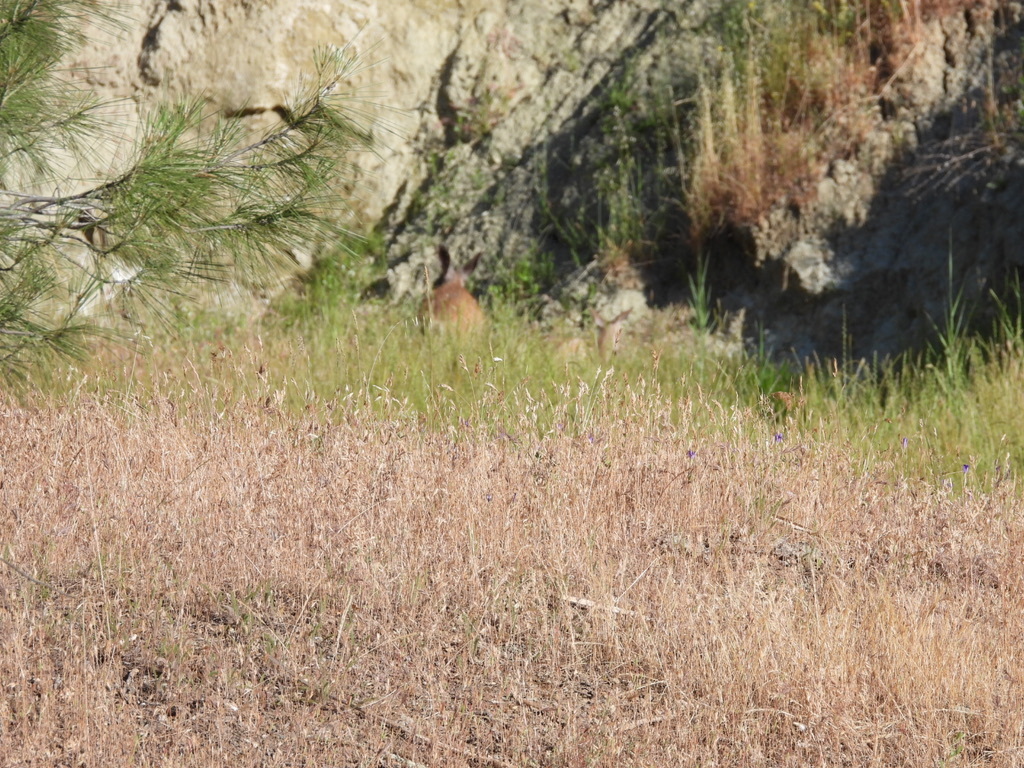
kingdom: Animalia
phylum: Chordata
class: Mammalia
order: Artiodactyla
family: Cervidae
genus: Odocoileus
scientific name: Odocoileus hemionus
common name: Mule deer
